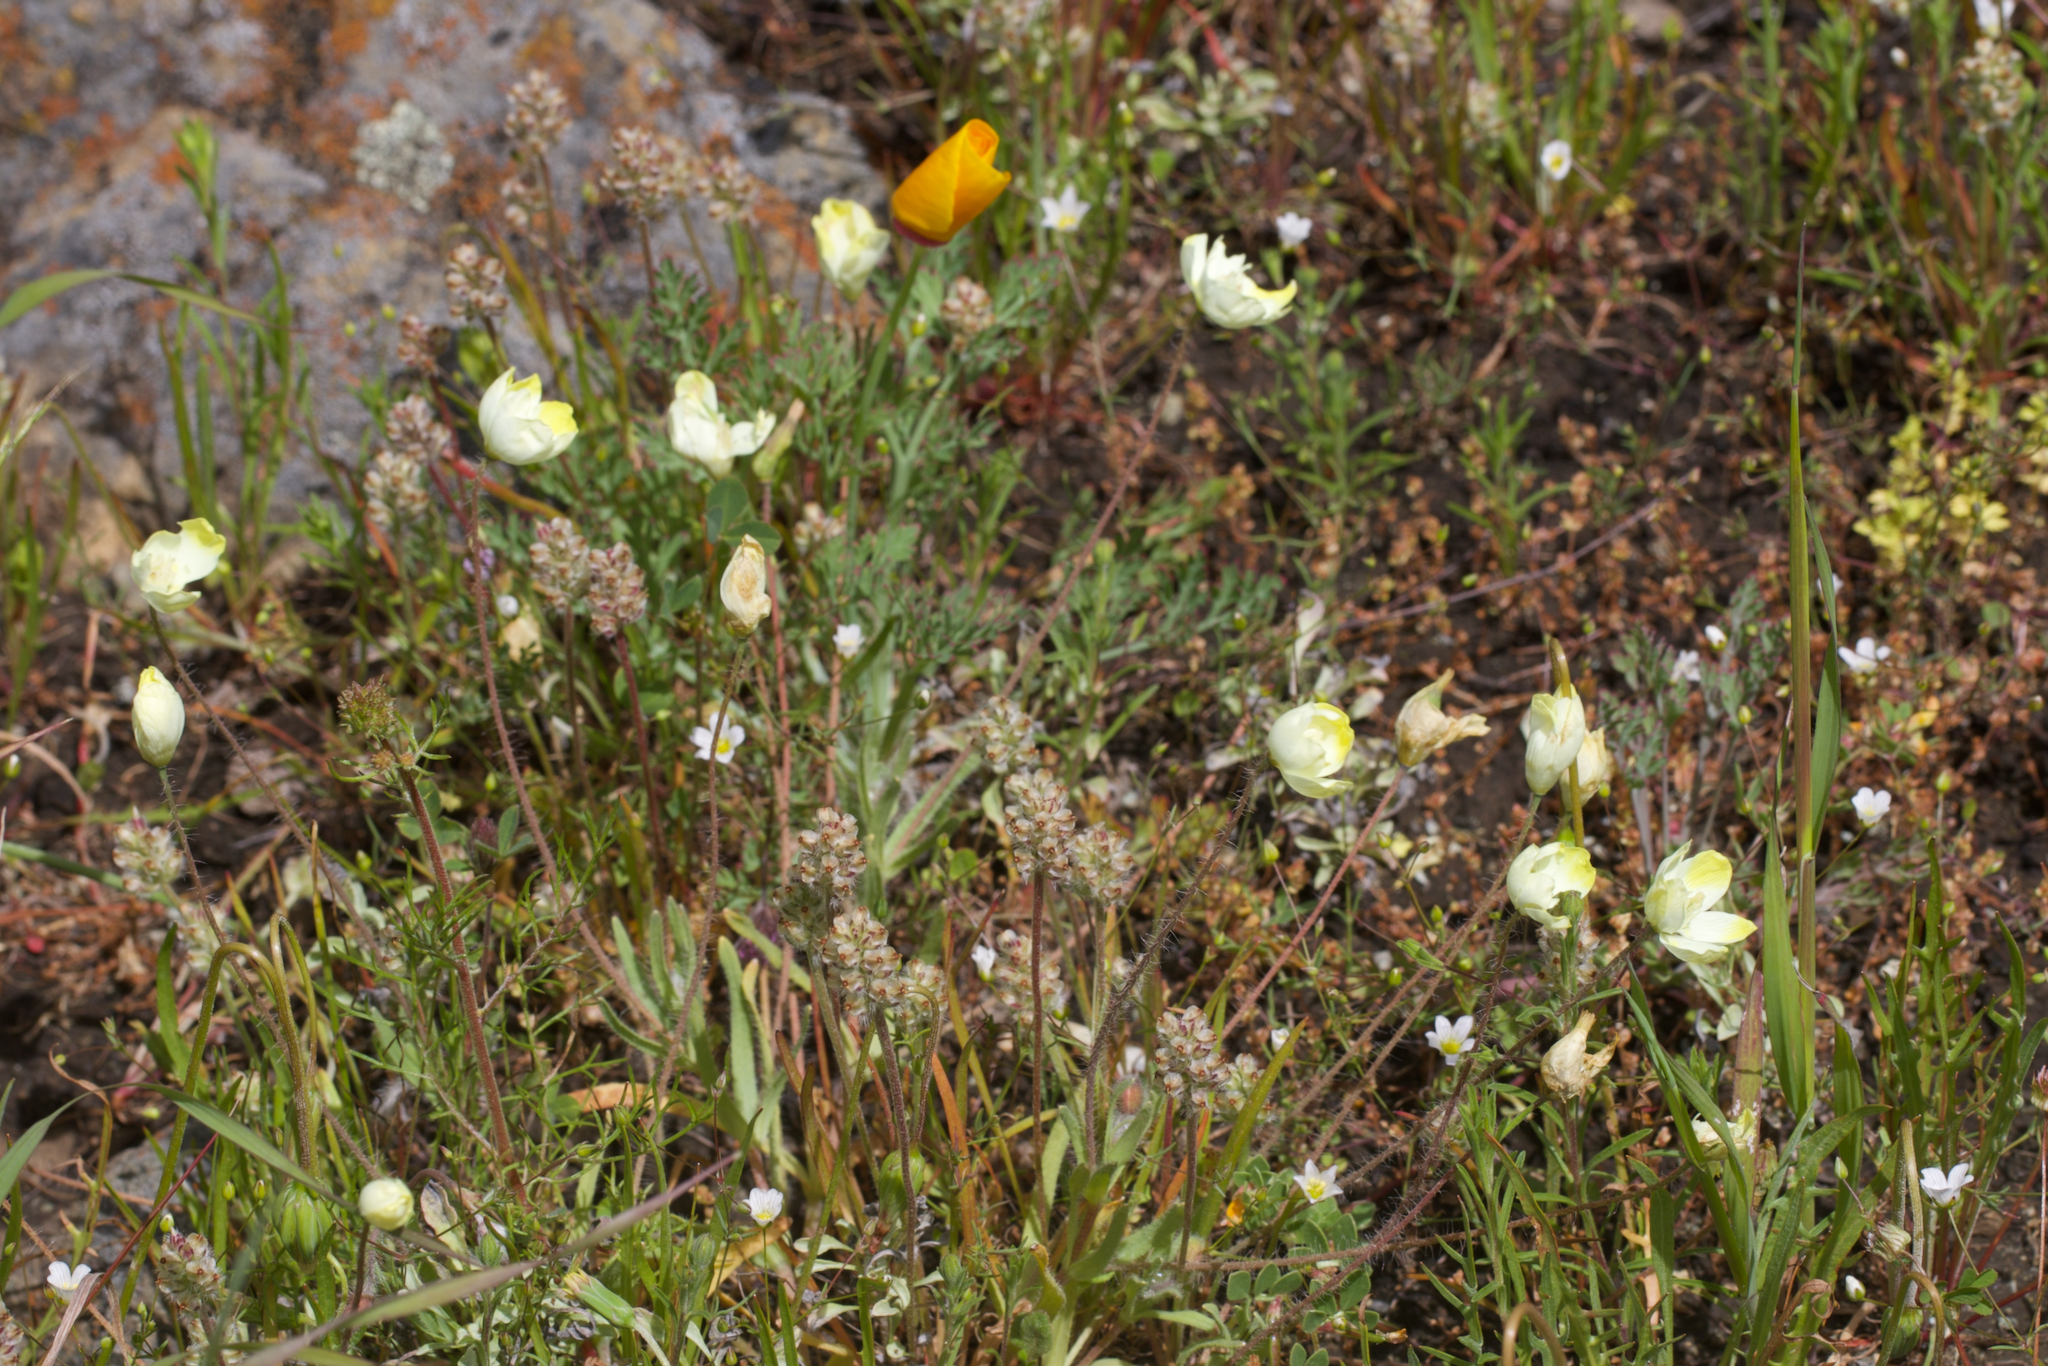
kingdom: Plantae
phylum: Tracheophyta
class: Magnoliopsida
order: Ranunculales
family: Papaveraceae
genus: Platystemon
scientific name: Platystemon californicus
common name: Cream-cups
